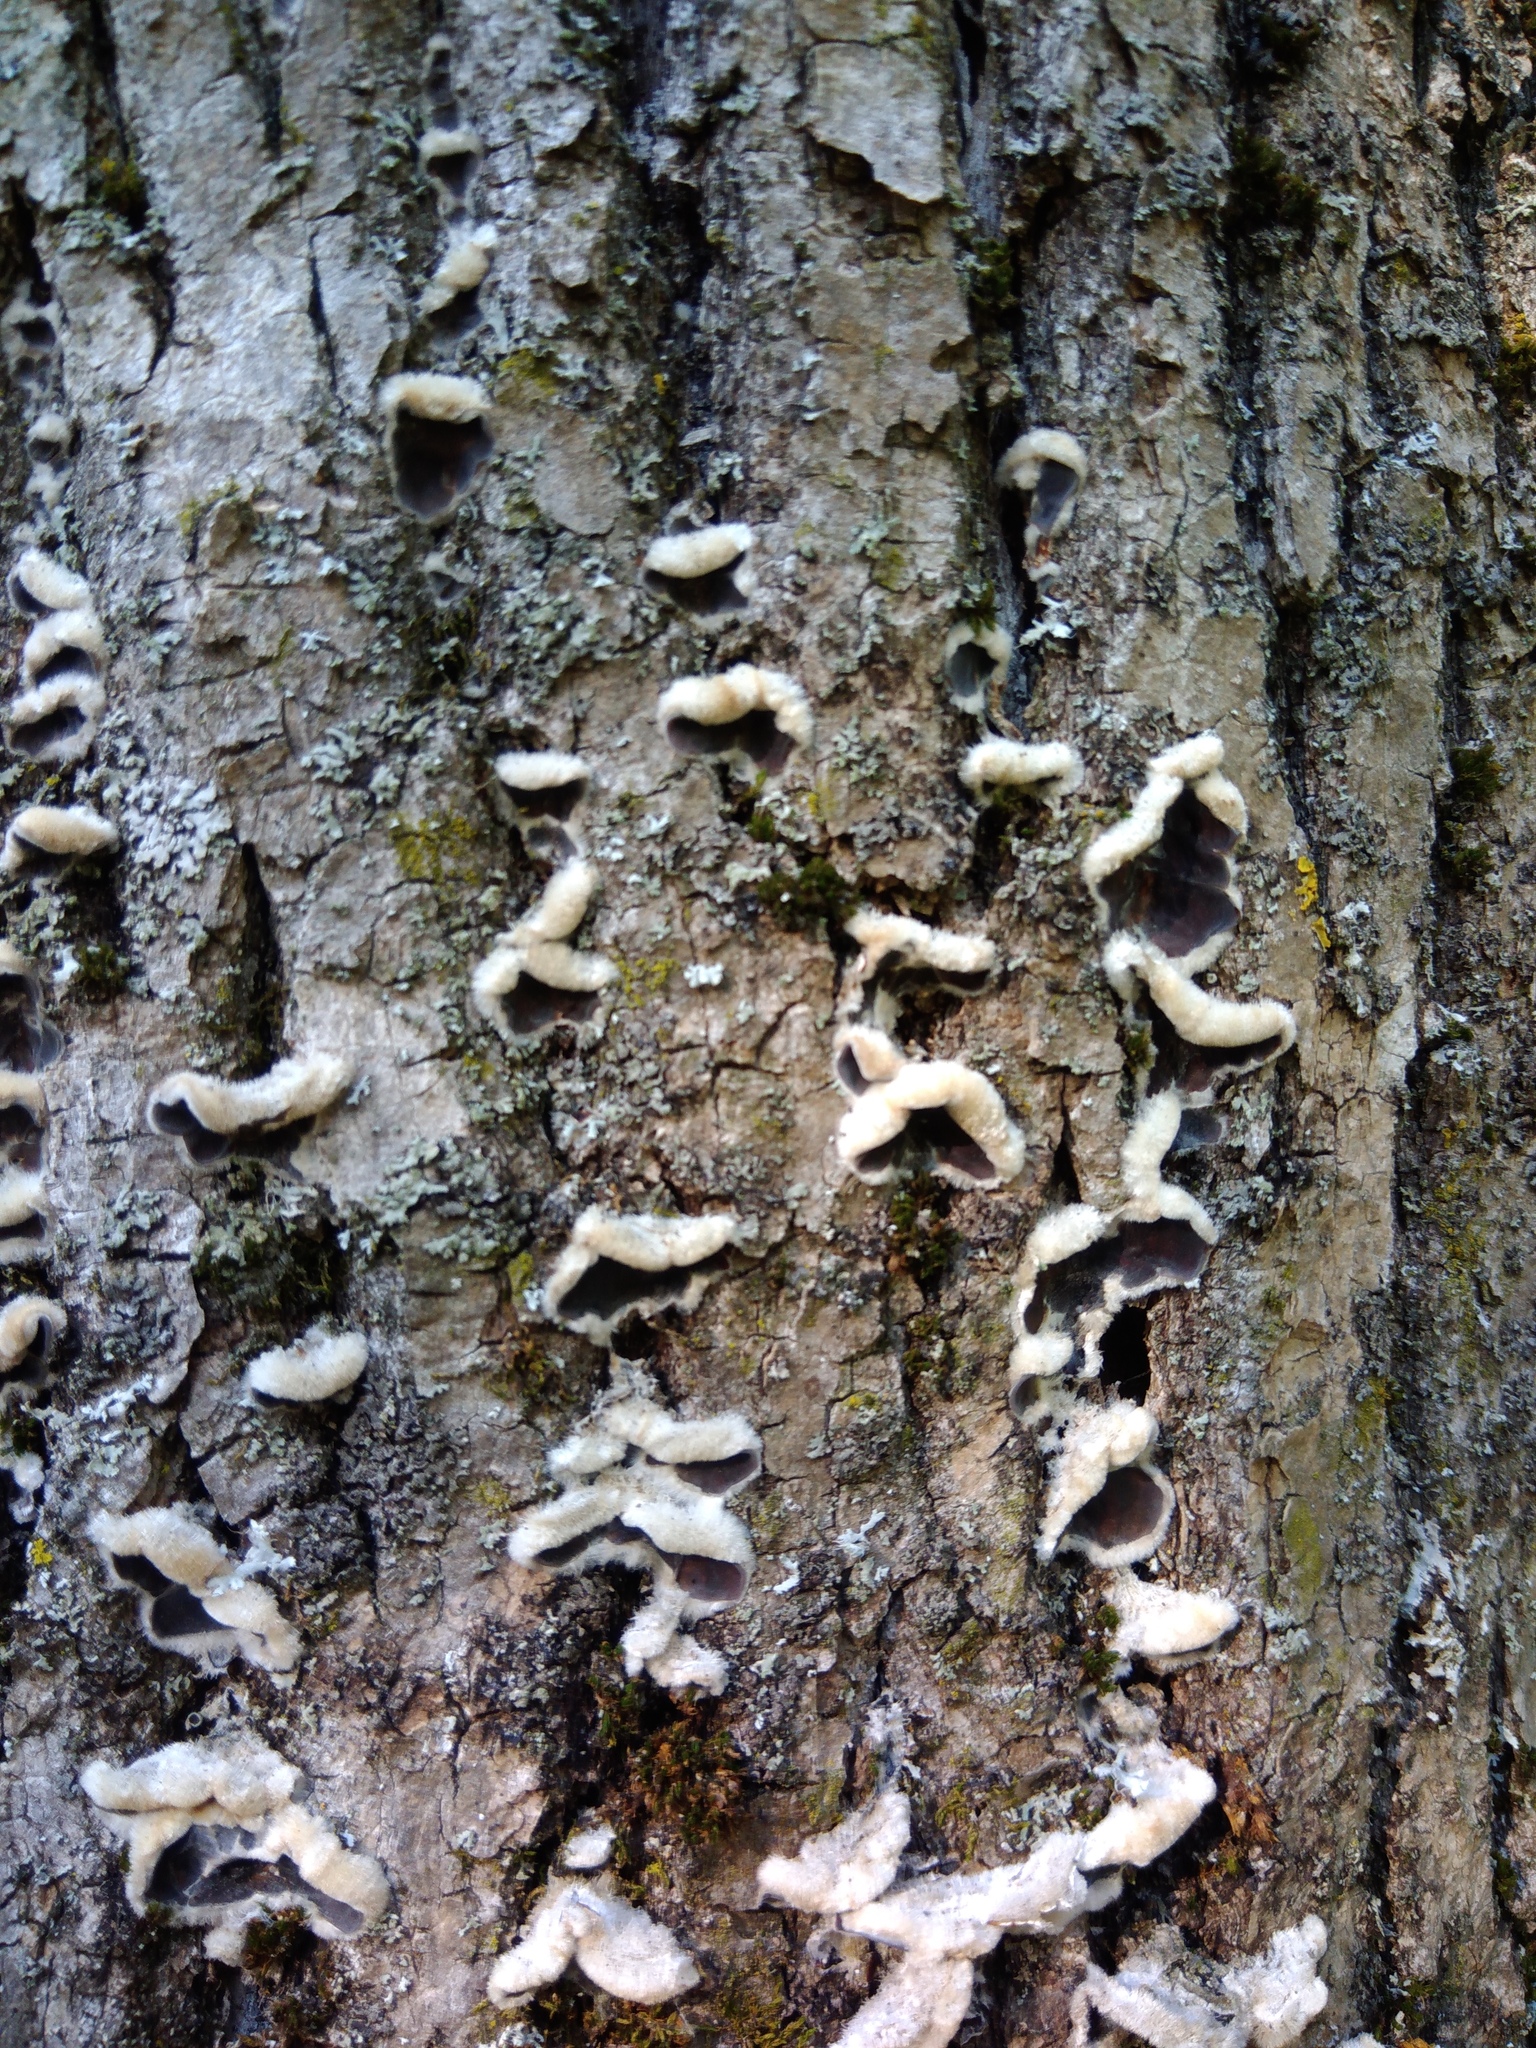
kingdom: Fungi
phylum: Basidiomycota
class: Agaricomycetes
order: Auriculariales
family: Auriculariaceae
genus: Auricularia
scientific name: Auricularia mesenterica
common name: Tripe fungus
